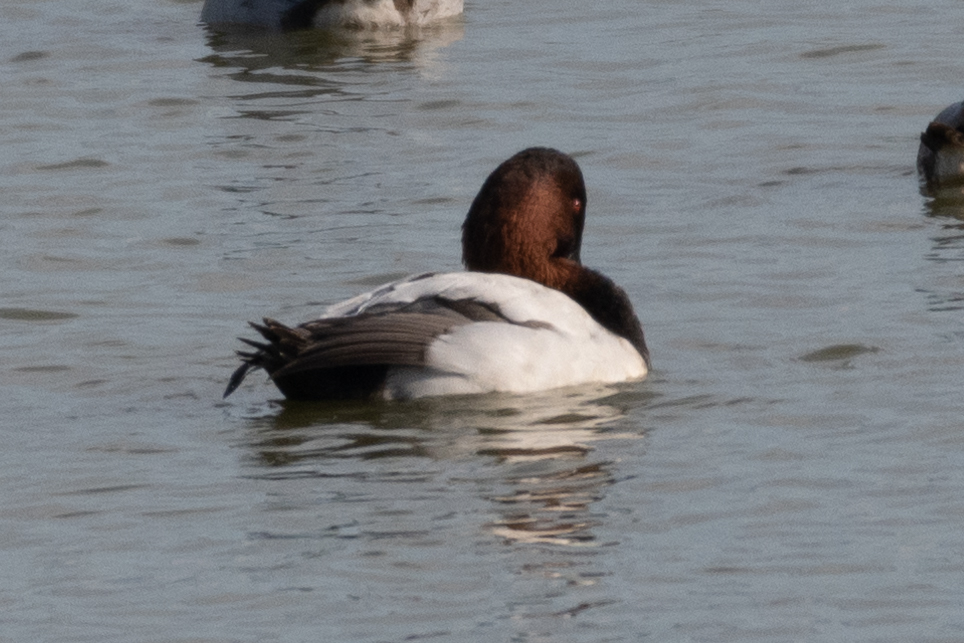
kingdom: Animalia
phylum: Chordata
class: Aves
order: Anseriformes
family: Anatidae
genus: Aythya
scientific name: Aythya valisineria
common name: Canvasback
